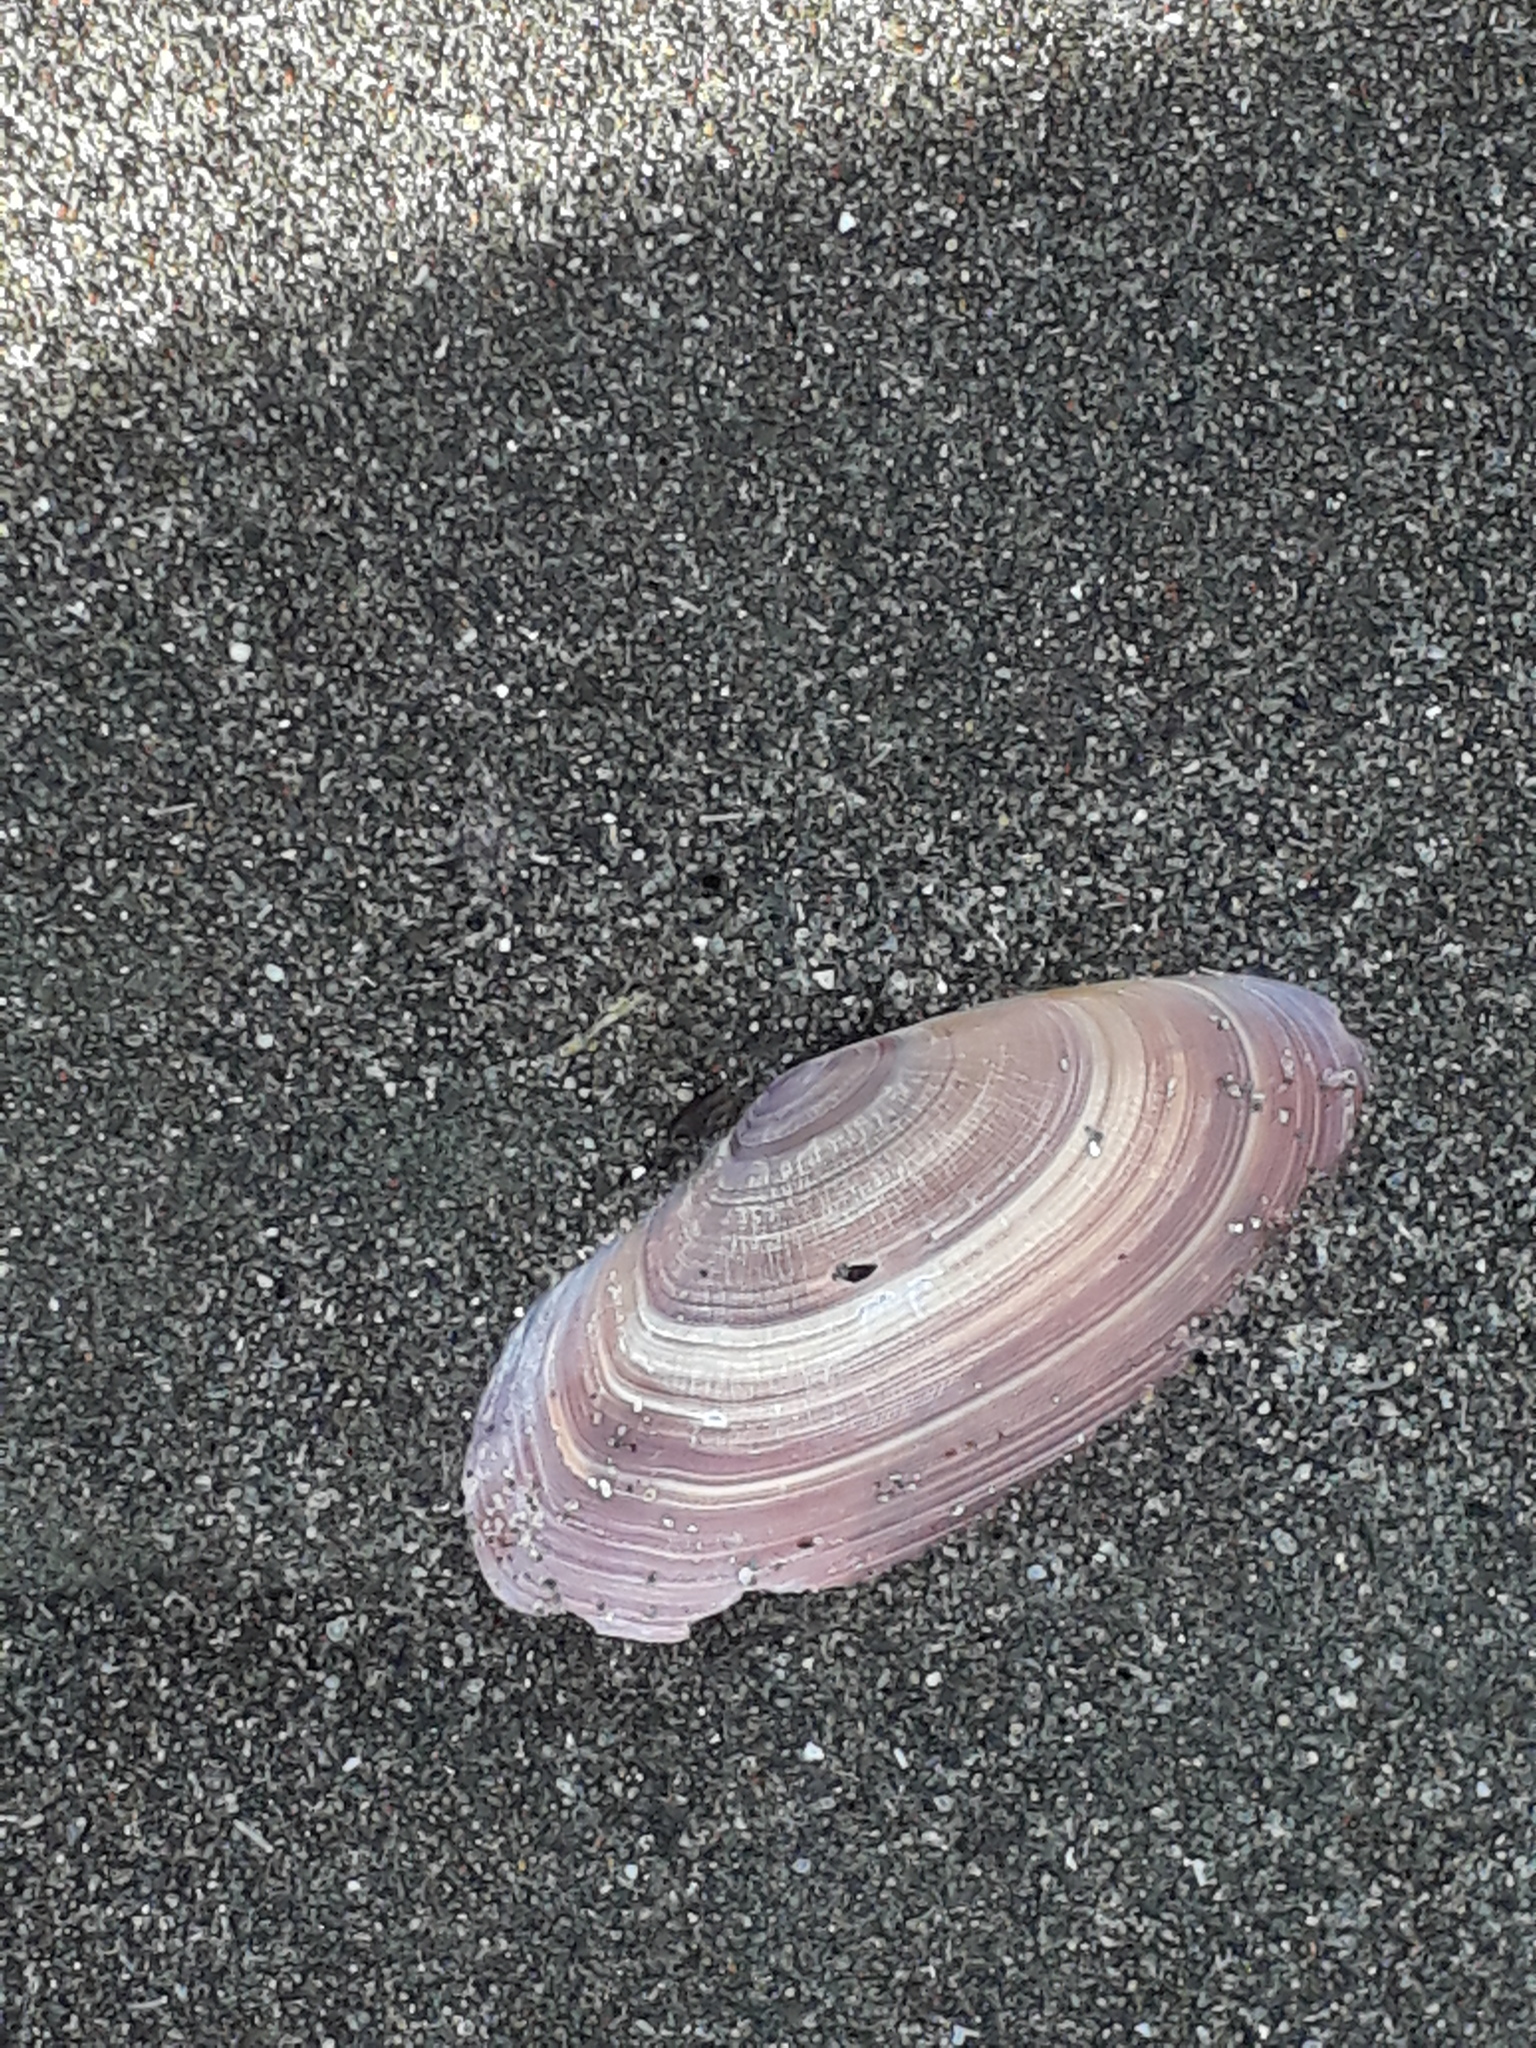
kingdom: Animalia
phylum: Mollusca
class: Bivalvia
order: Cardiida
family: Psammobiidae
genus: Gari
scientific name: Gari lineolata
